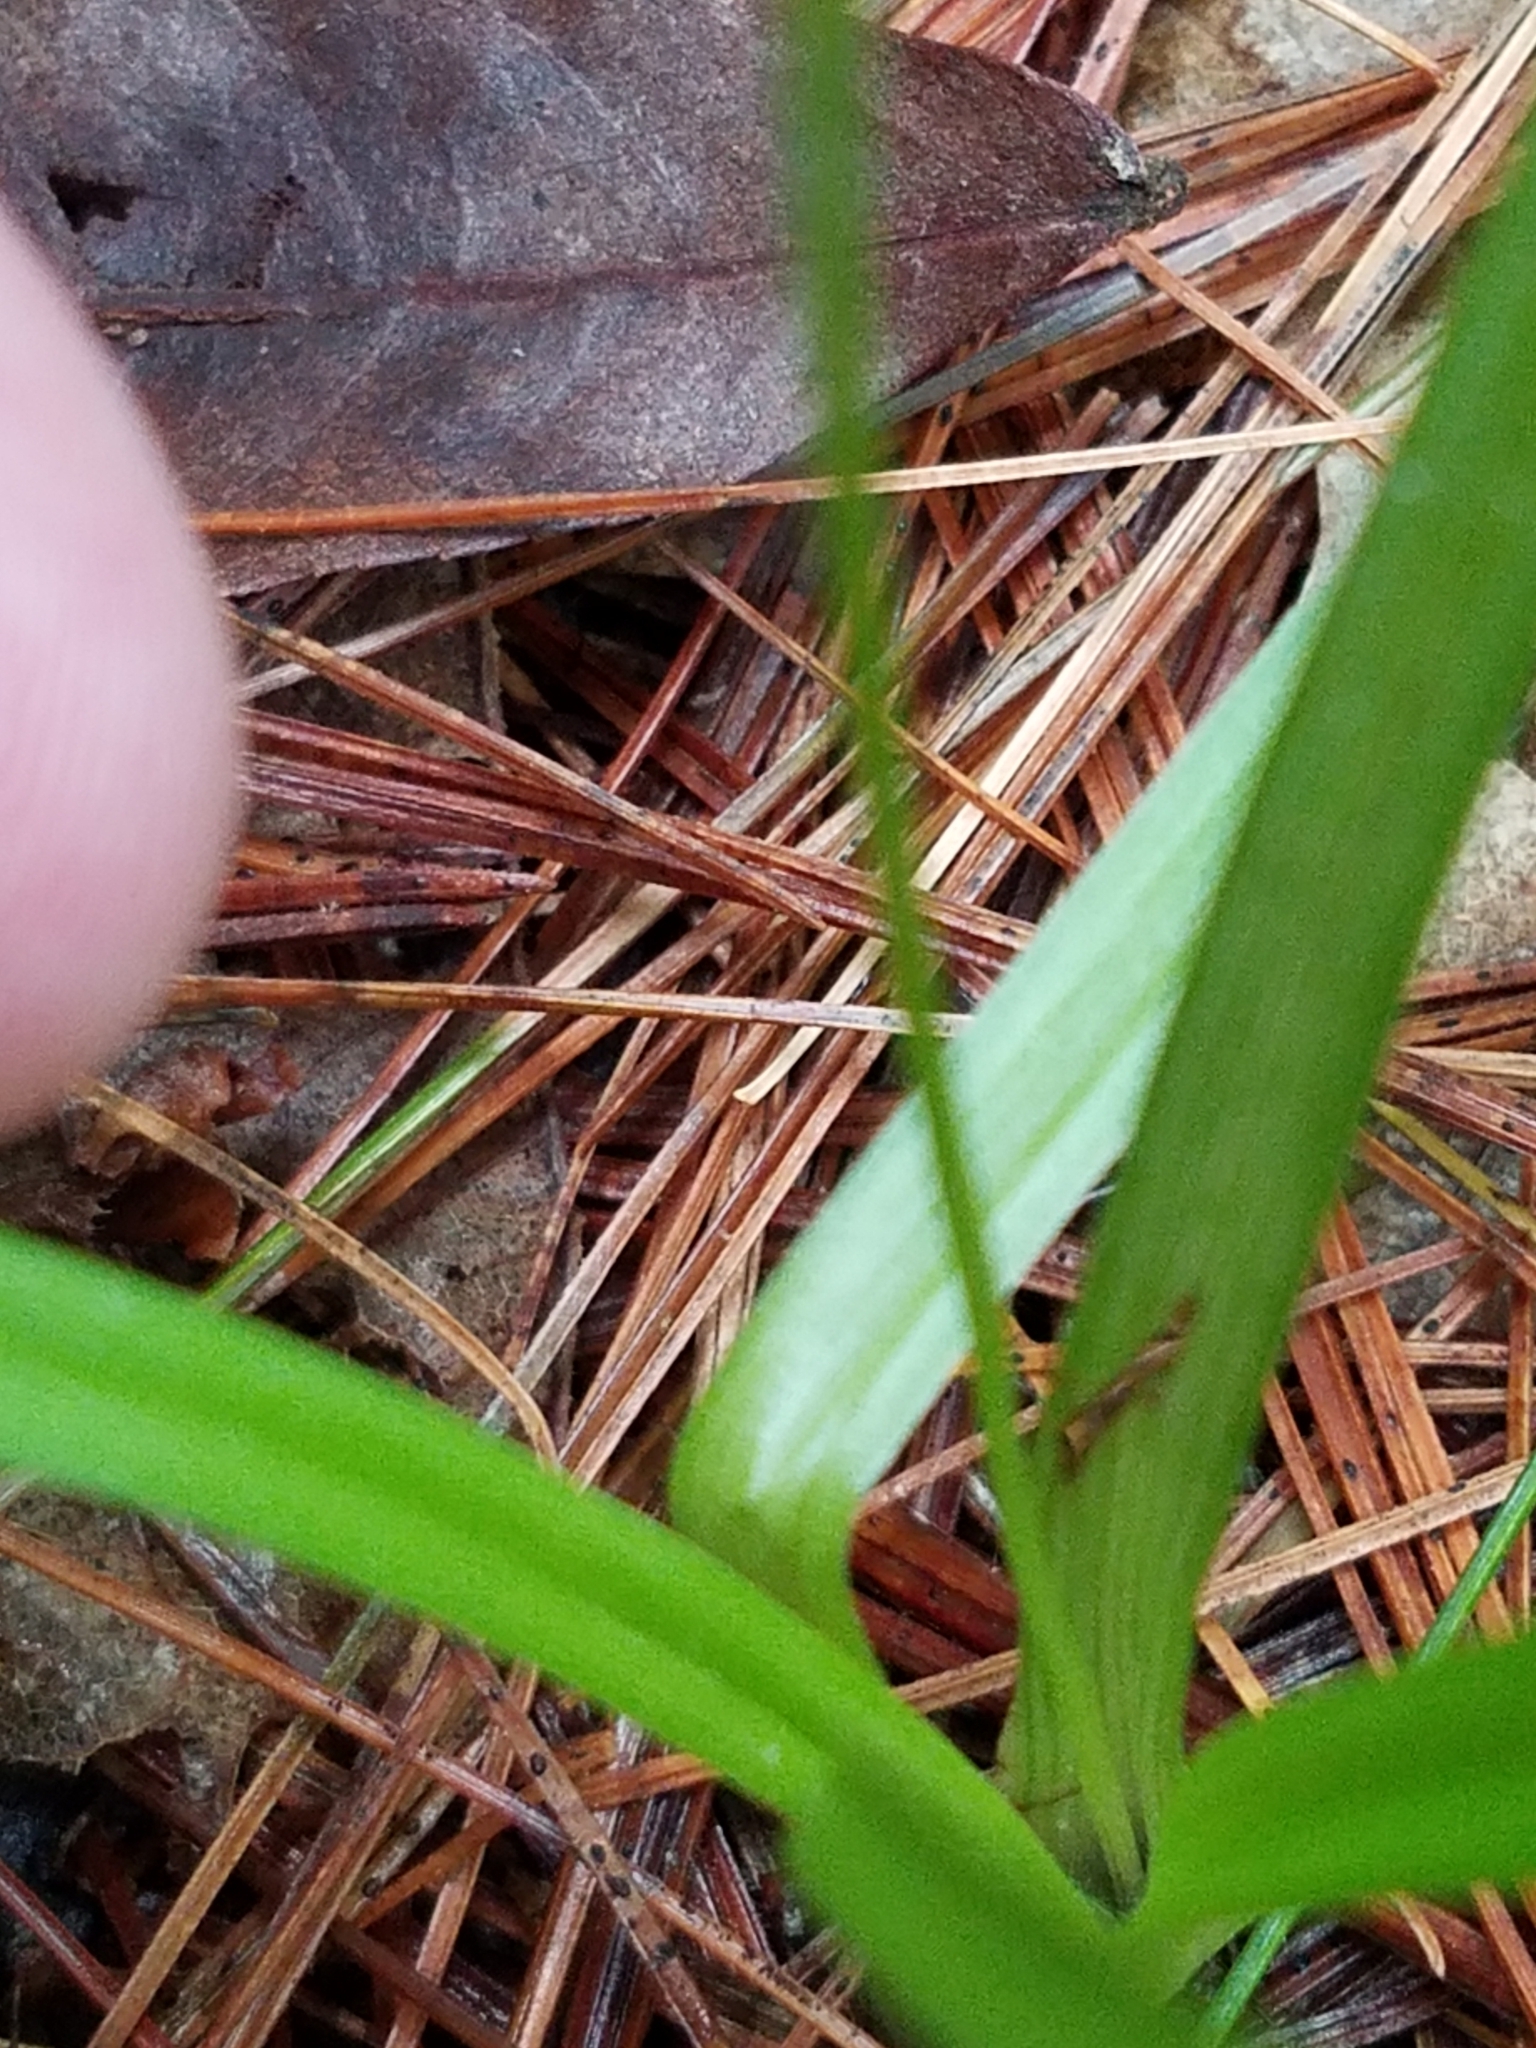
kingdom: Plantae
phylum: Tracheophyta
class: Liliopsida
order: Asparagales
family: Hypoxidaceae
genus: Hypoxis
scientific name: Hypoxis hirsuta
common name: Common goldstar
